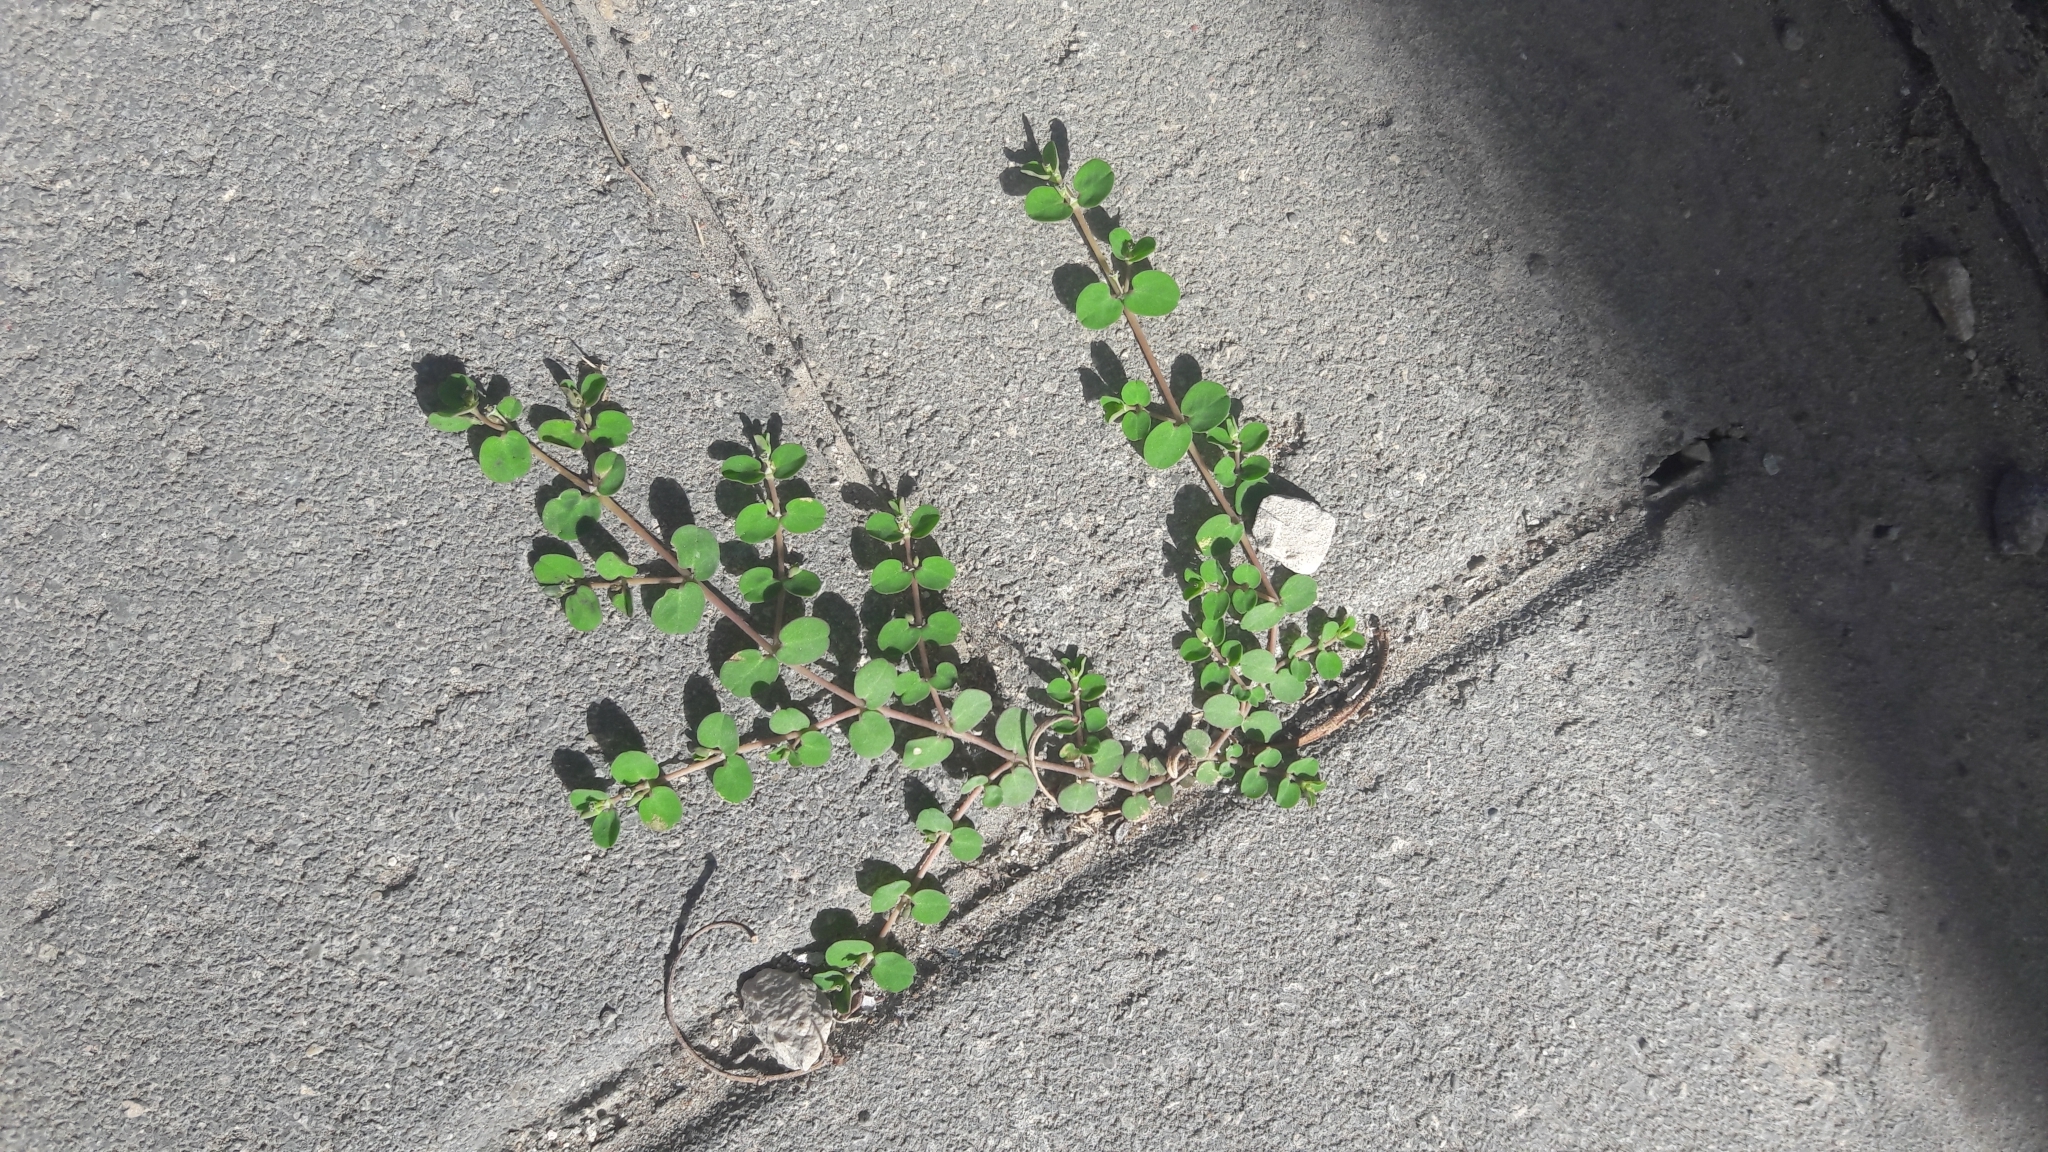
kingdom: Plantae
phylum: Tracheophyta
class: Magnoliopsida
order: Malpighiales
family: Euphorbiaceae
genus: Euphorbia
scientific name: Euphorbia serpens
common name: Matted sandmat
